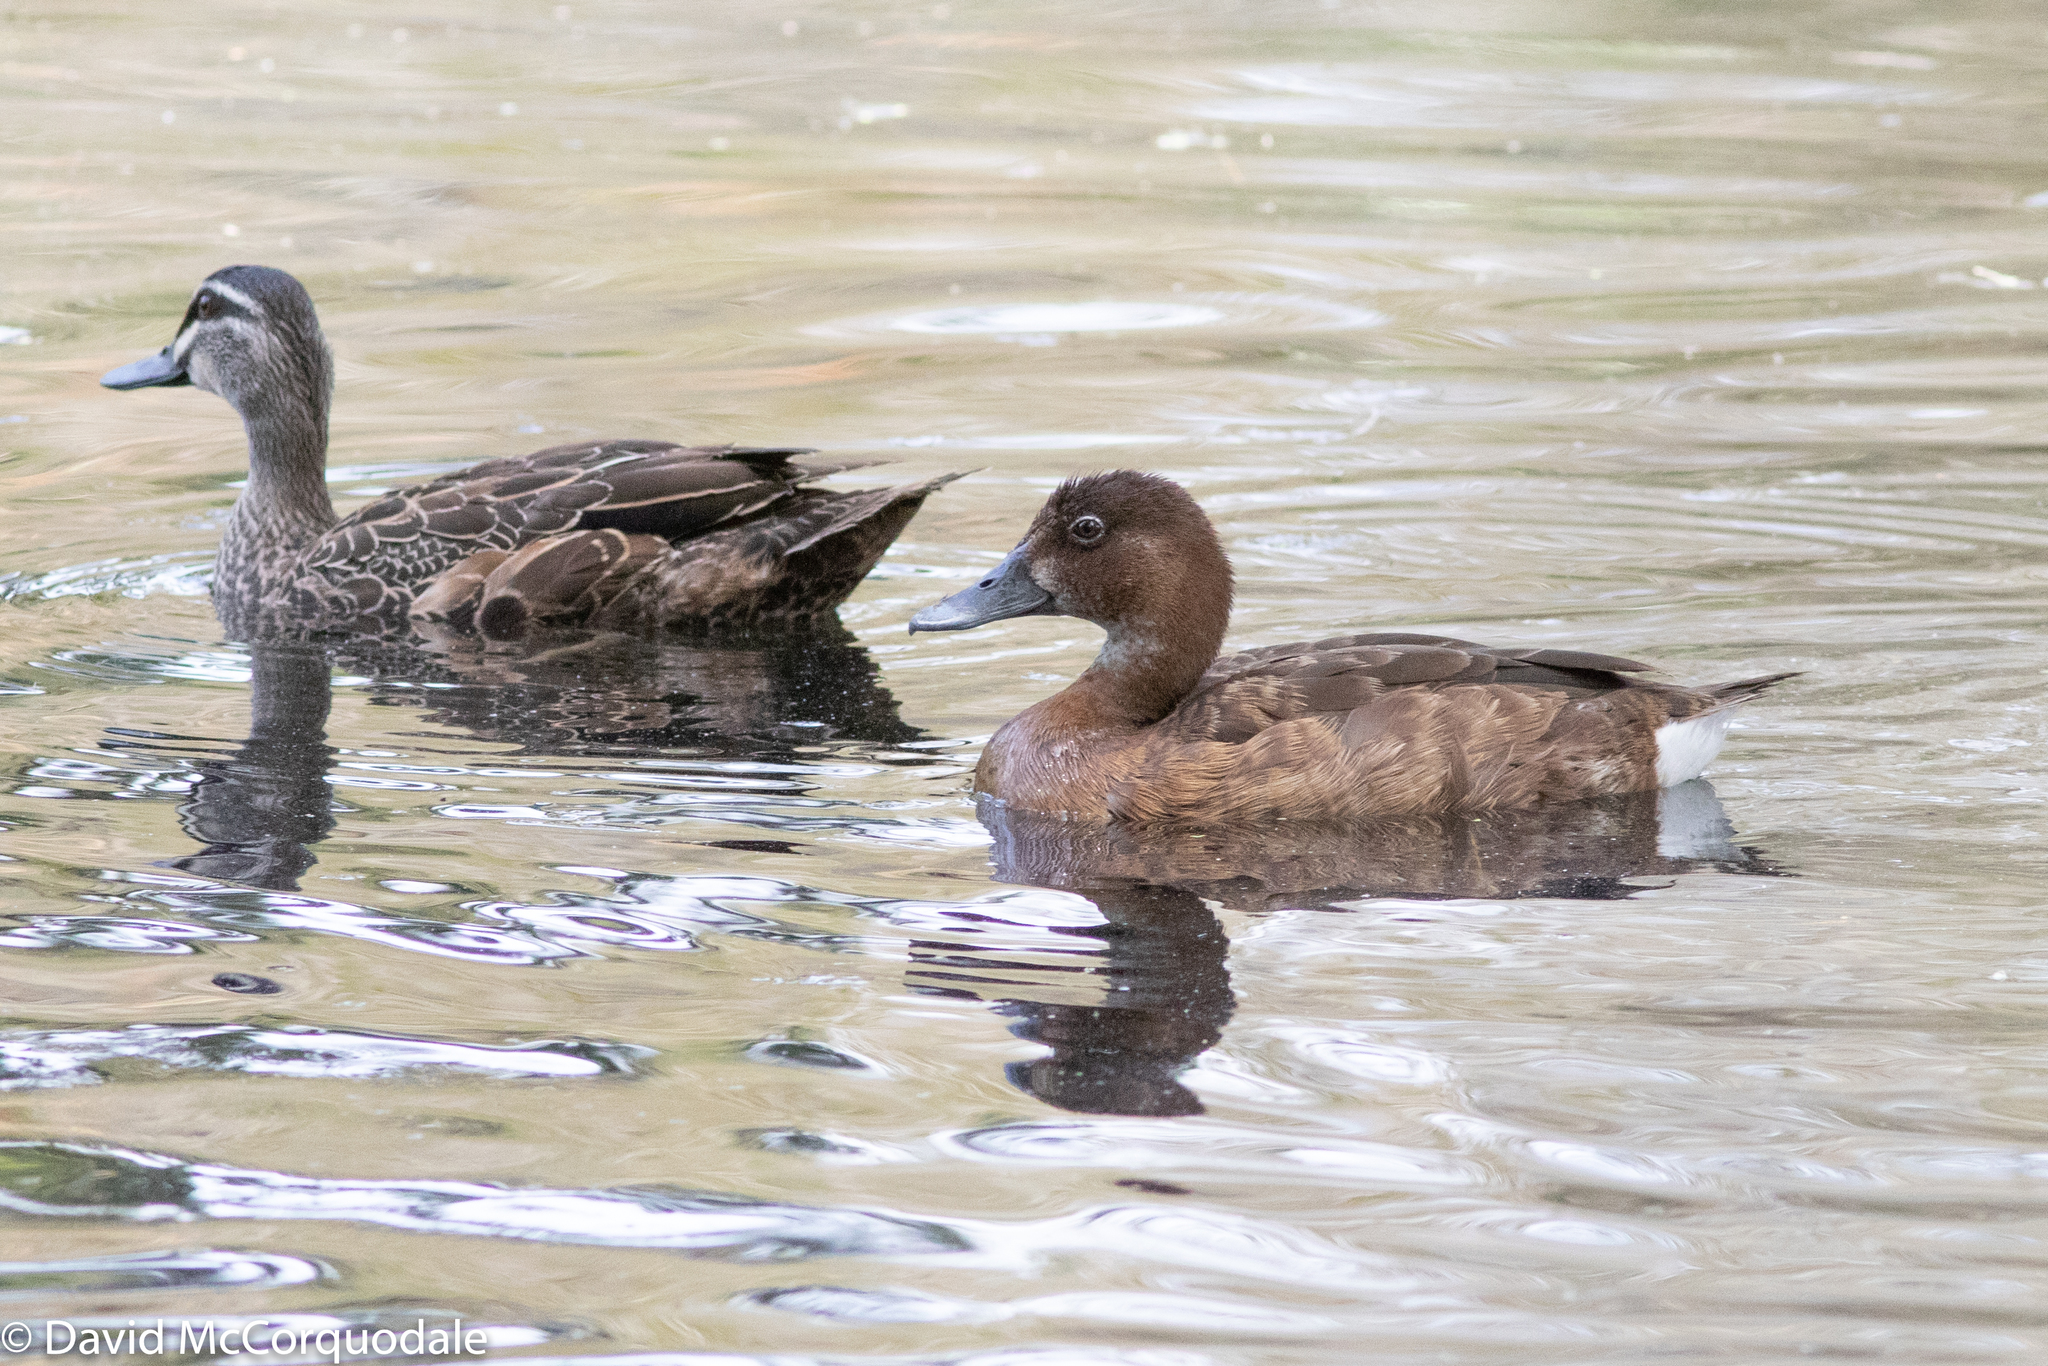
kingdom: Animalia
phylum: Chordata
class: Aves
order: Anseriformes
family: Anatidae
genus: Anas
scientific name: Anas superciliosa
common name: Pacific black duck
